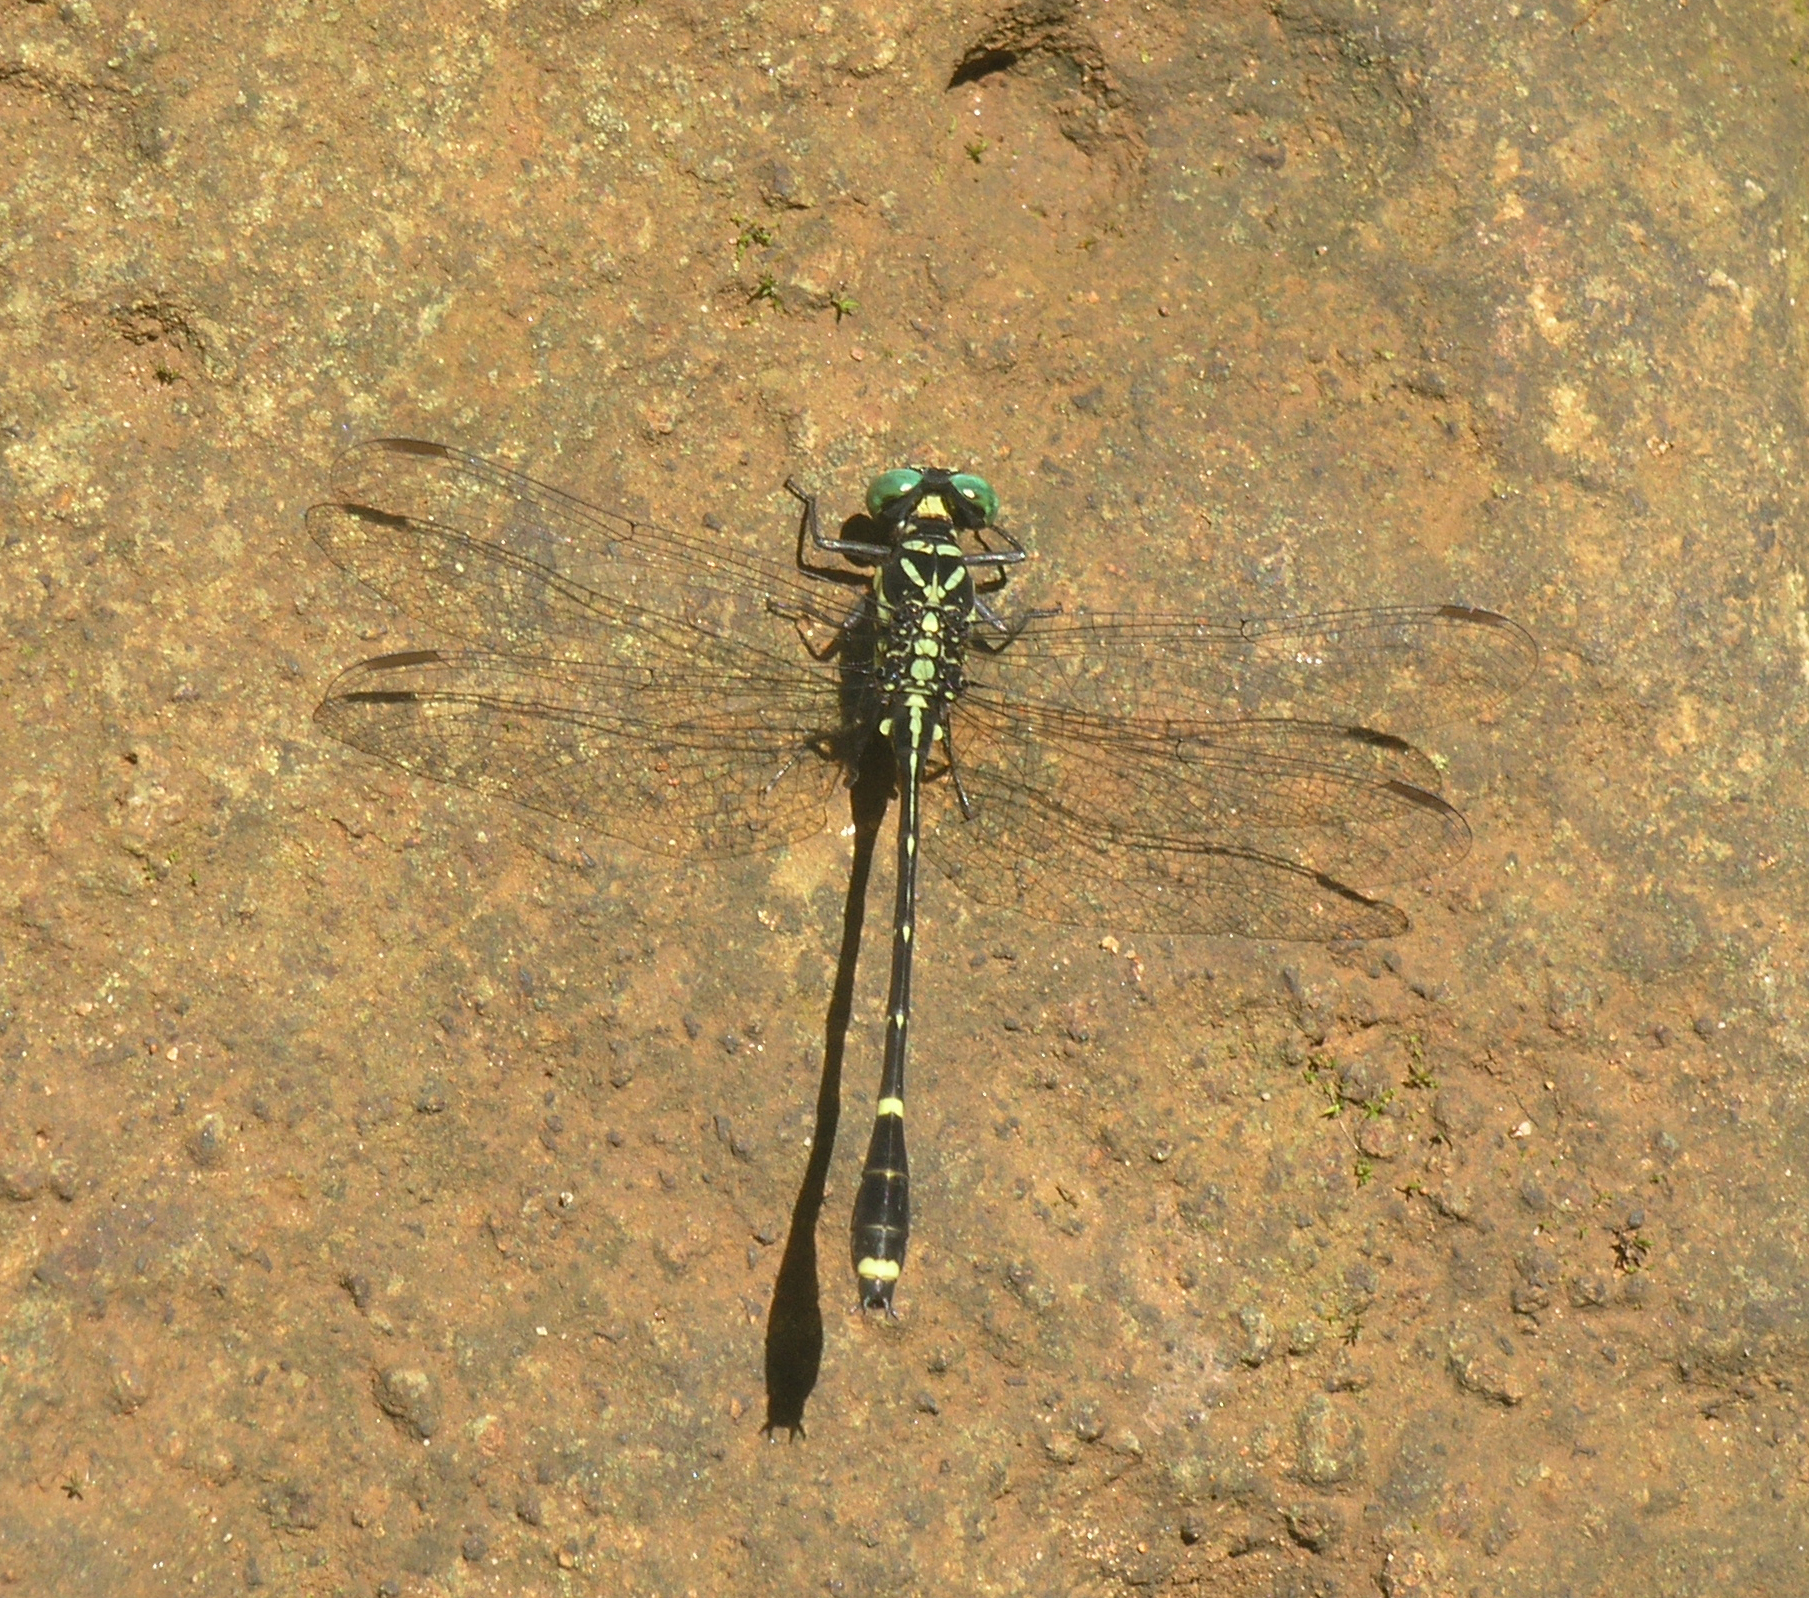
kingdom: Animalia
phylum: Arthropoda
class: Insecta
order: Odonata
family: Gomphidae
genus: Burmagomphus
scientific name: Burmagomphus divaricatus
